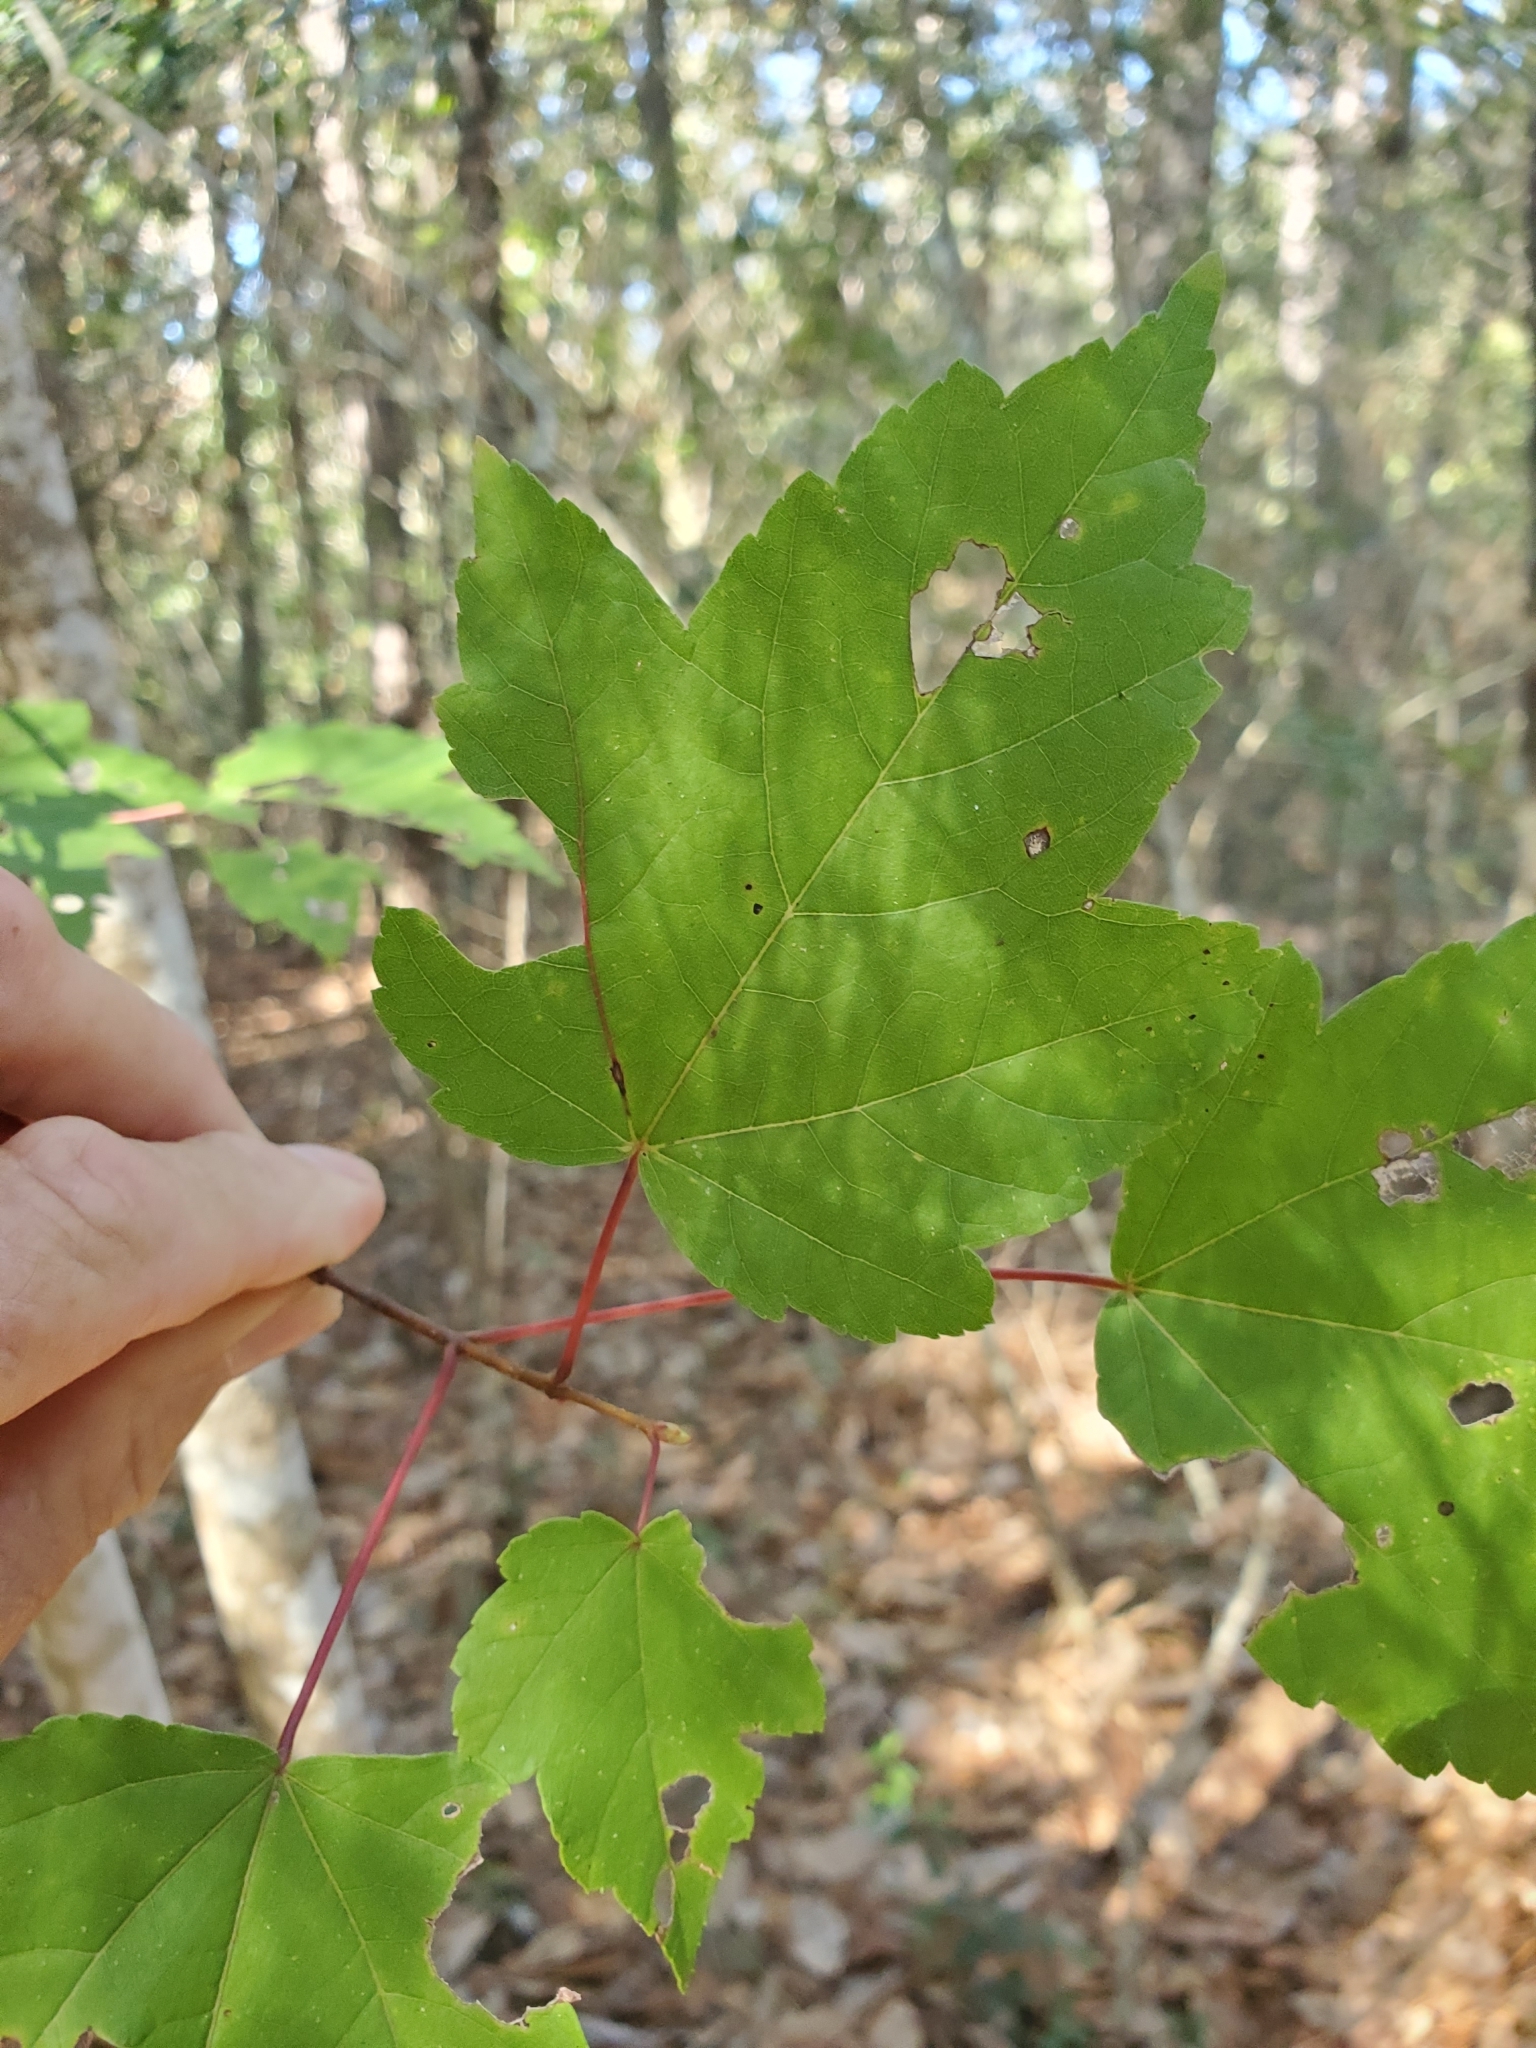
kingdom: Plantae
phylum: Tracheophyta
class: Magnoliopsida
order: Sapindales
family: Sapindaceae
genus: Acer
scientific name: Acer rubrum
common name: Red maple
